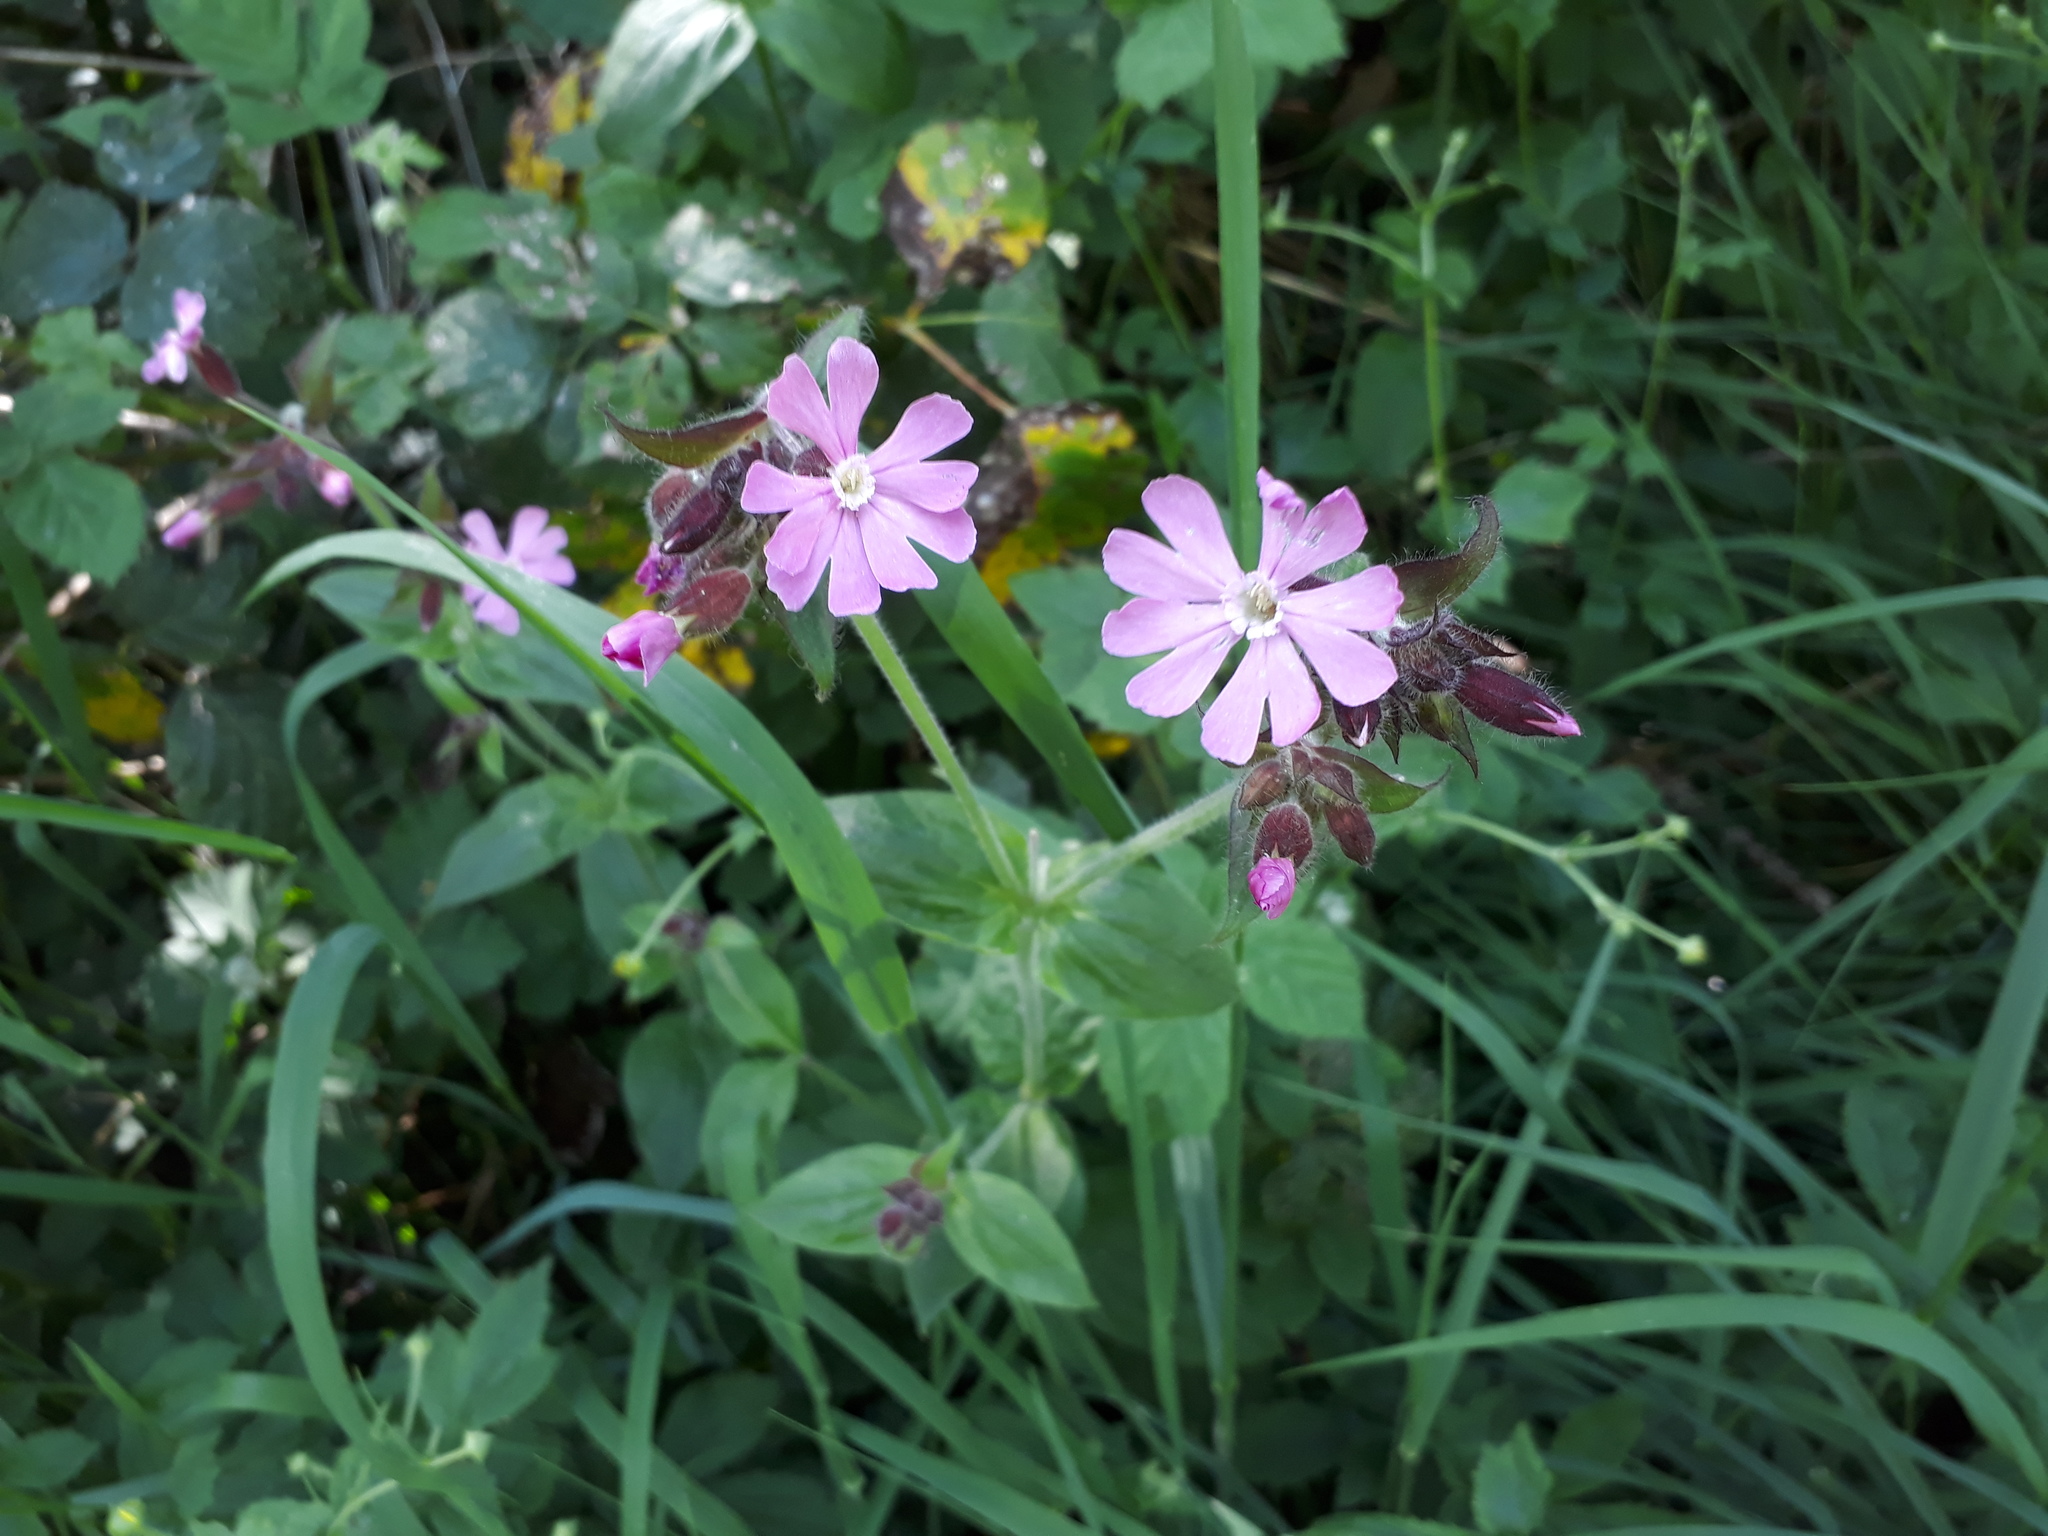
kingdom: Plantae
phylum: Tracheophyta
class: Magnoliopsida
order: Caryophyllales
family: Caryophyllaceae
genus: Silene
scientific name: Silene dioica
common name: Red campion
